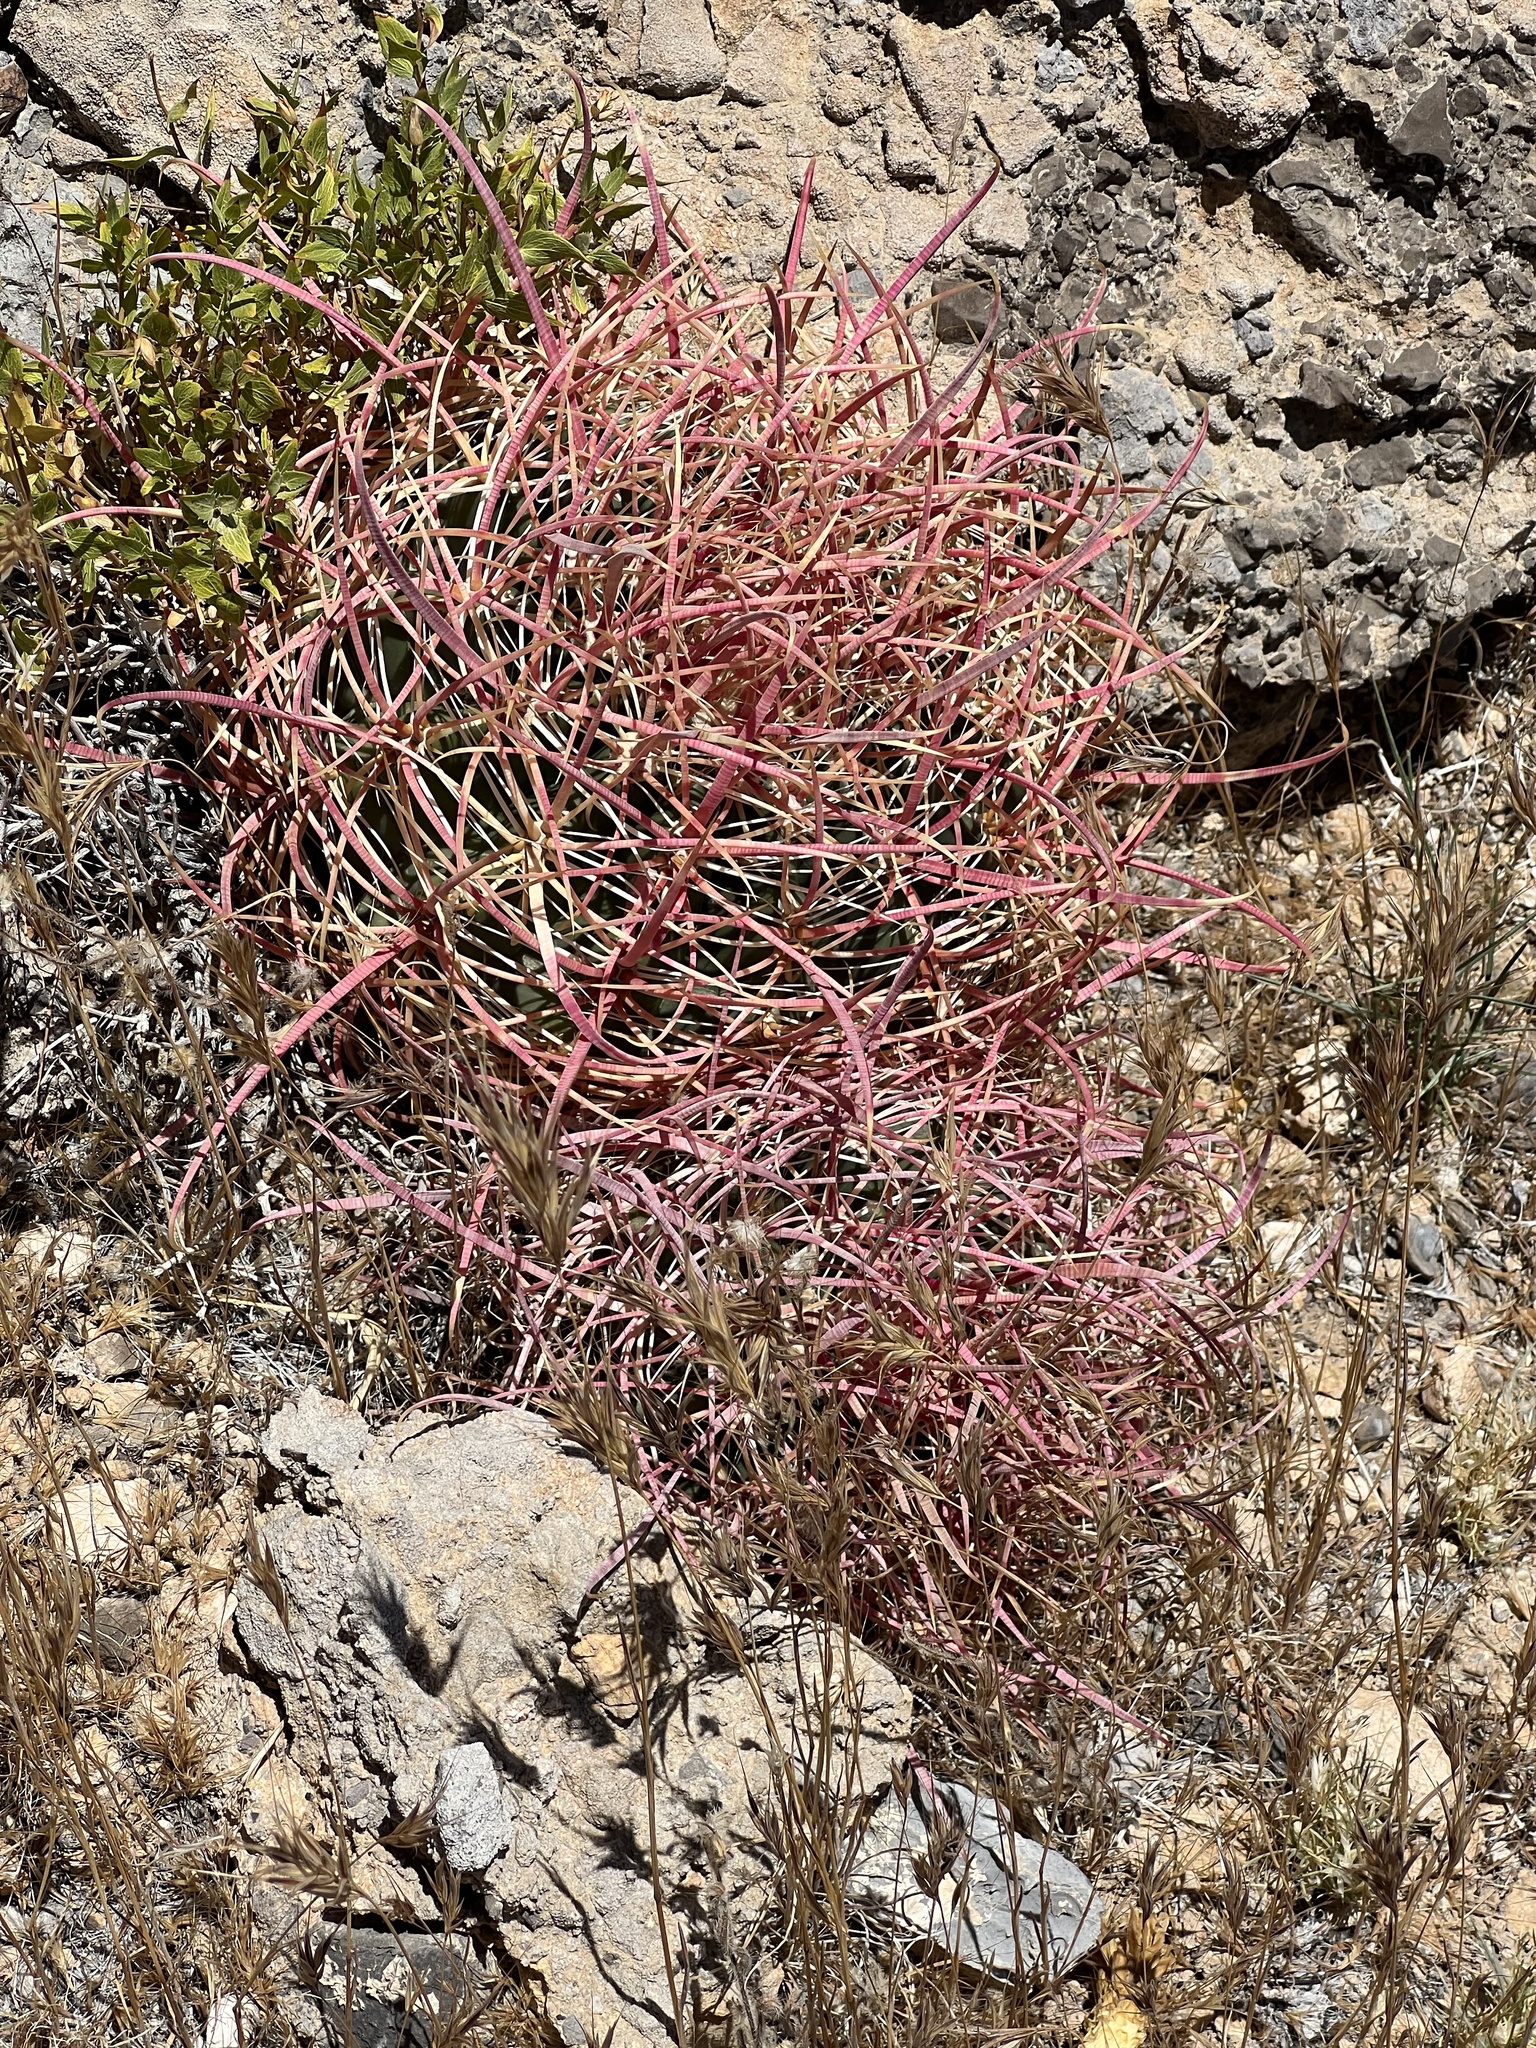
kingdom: Plantae
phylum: Tracheophyta
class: Magnoliopsida
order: Caryophyllales
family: Cactaceae
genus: Ferocactus
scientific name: Ferocactus cylindraceus
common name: California barrel cactus
